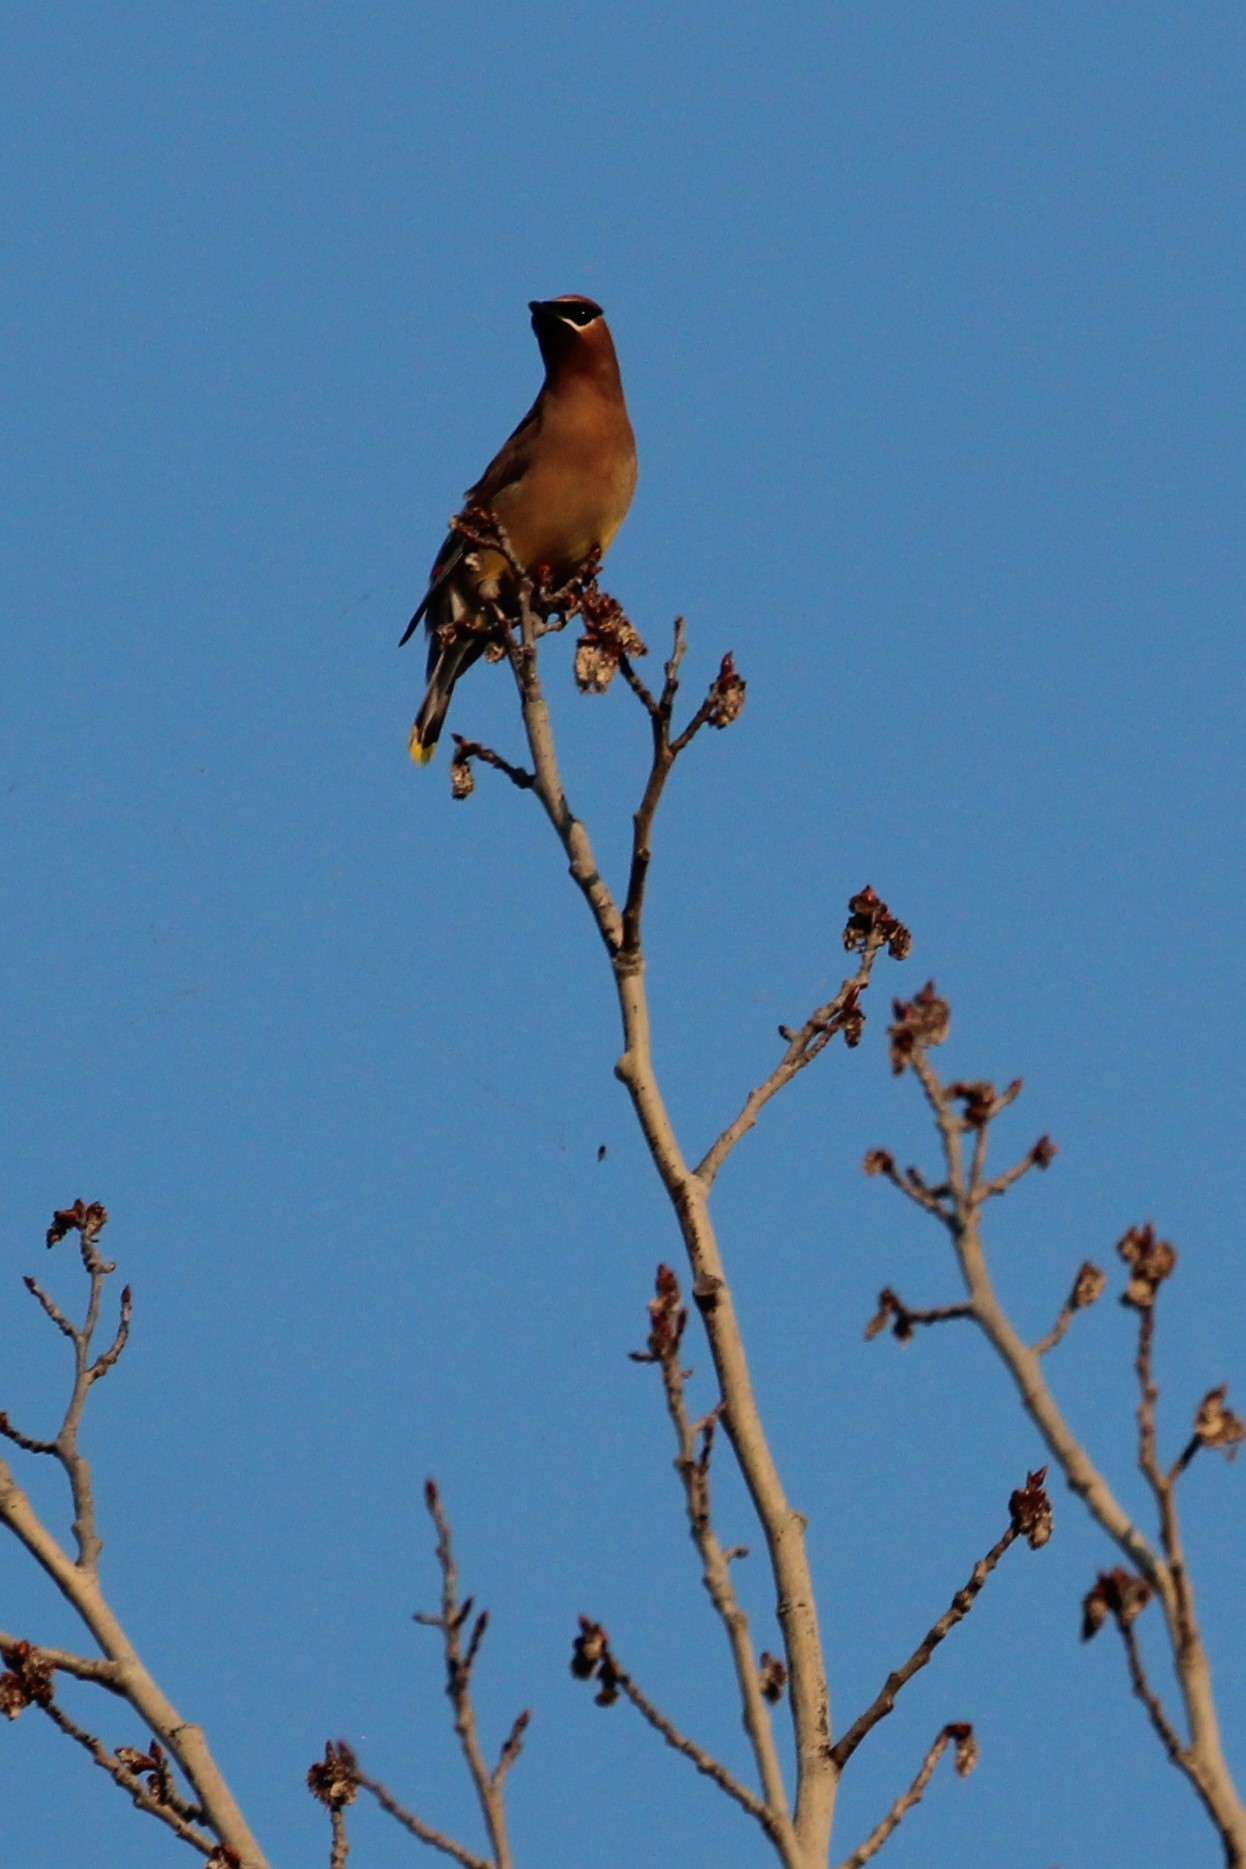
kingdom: Animalia
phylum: Chordata
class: Aves
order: Passeriformes
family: Bombycillidae
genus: Bombycilla
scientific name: Bombycilla cedrorum
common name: Cedar waxwing
